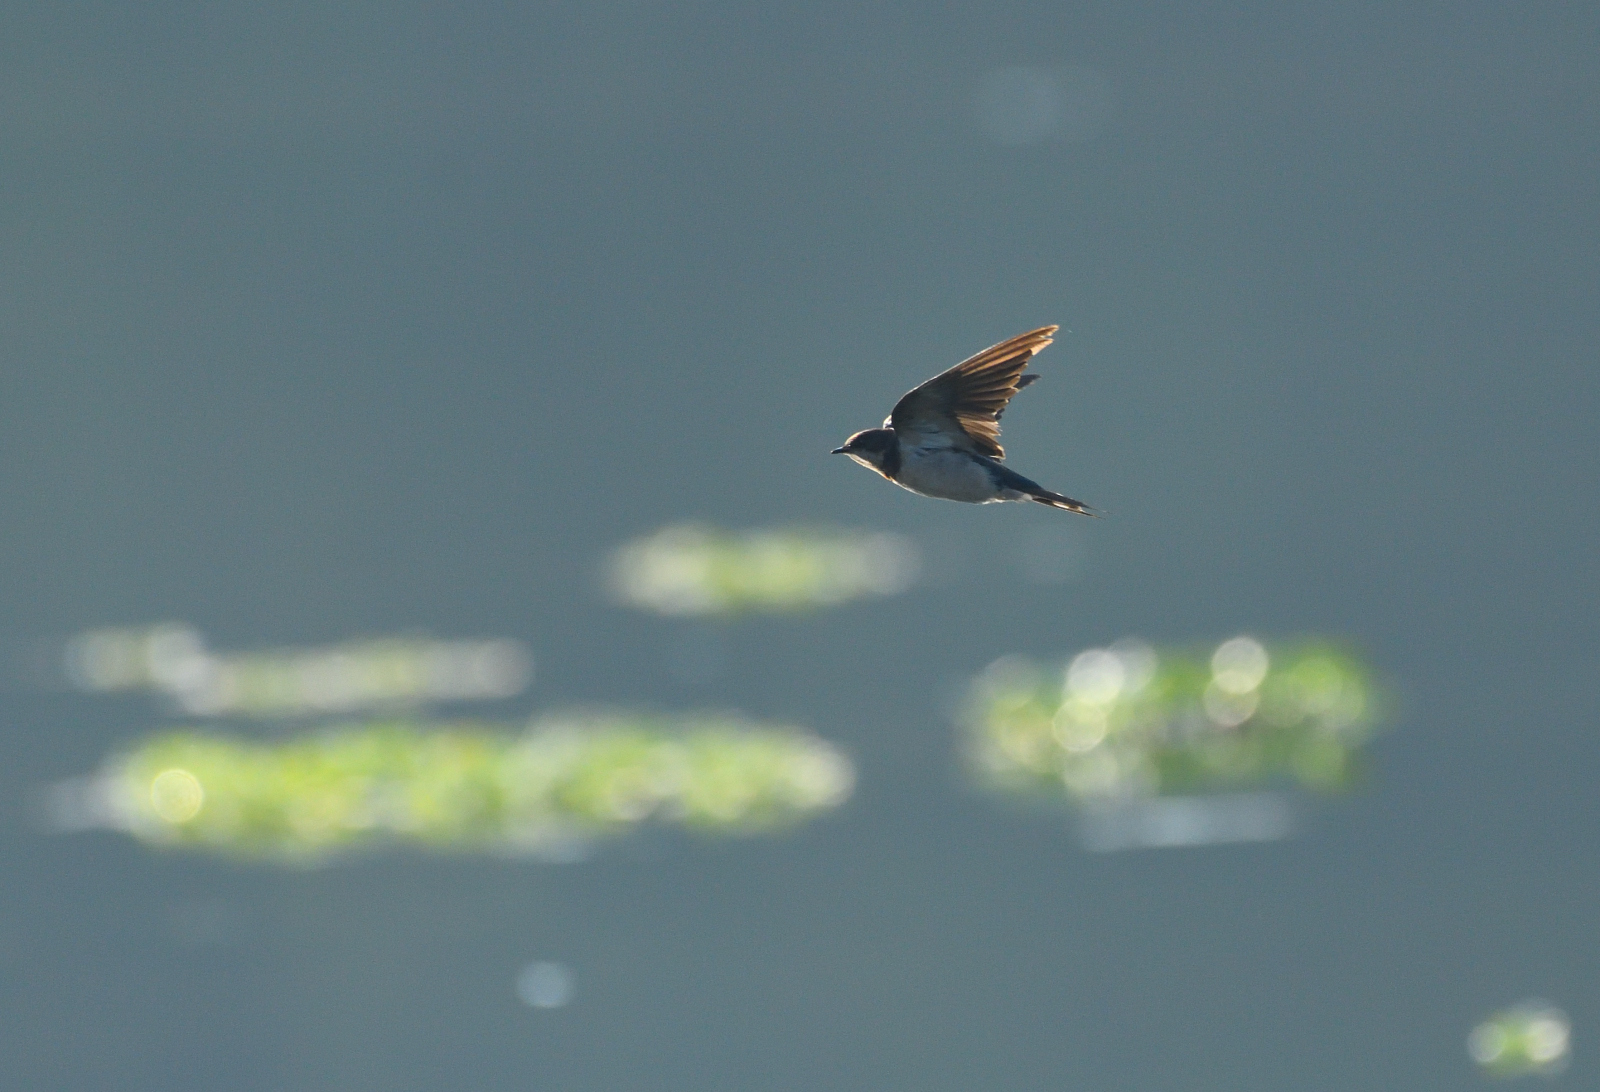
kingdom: Animalia
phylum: Chordata
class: Aves
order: Passeriformes
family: Hirundinidae
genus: Hirundo
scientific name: Hirundo rustica
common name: Barn swallow
